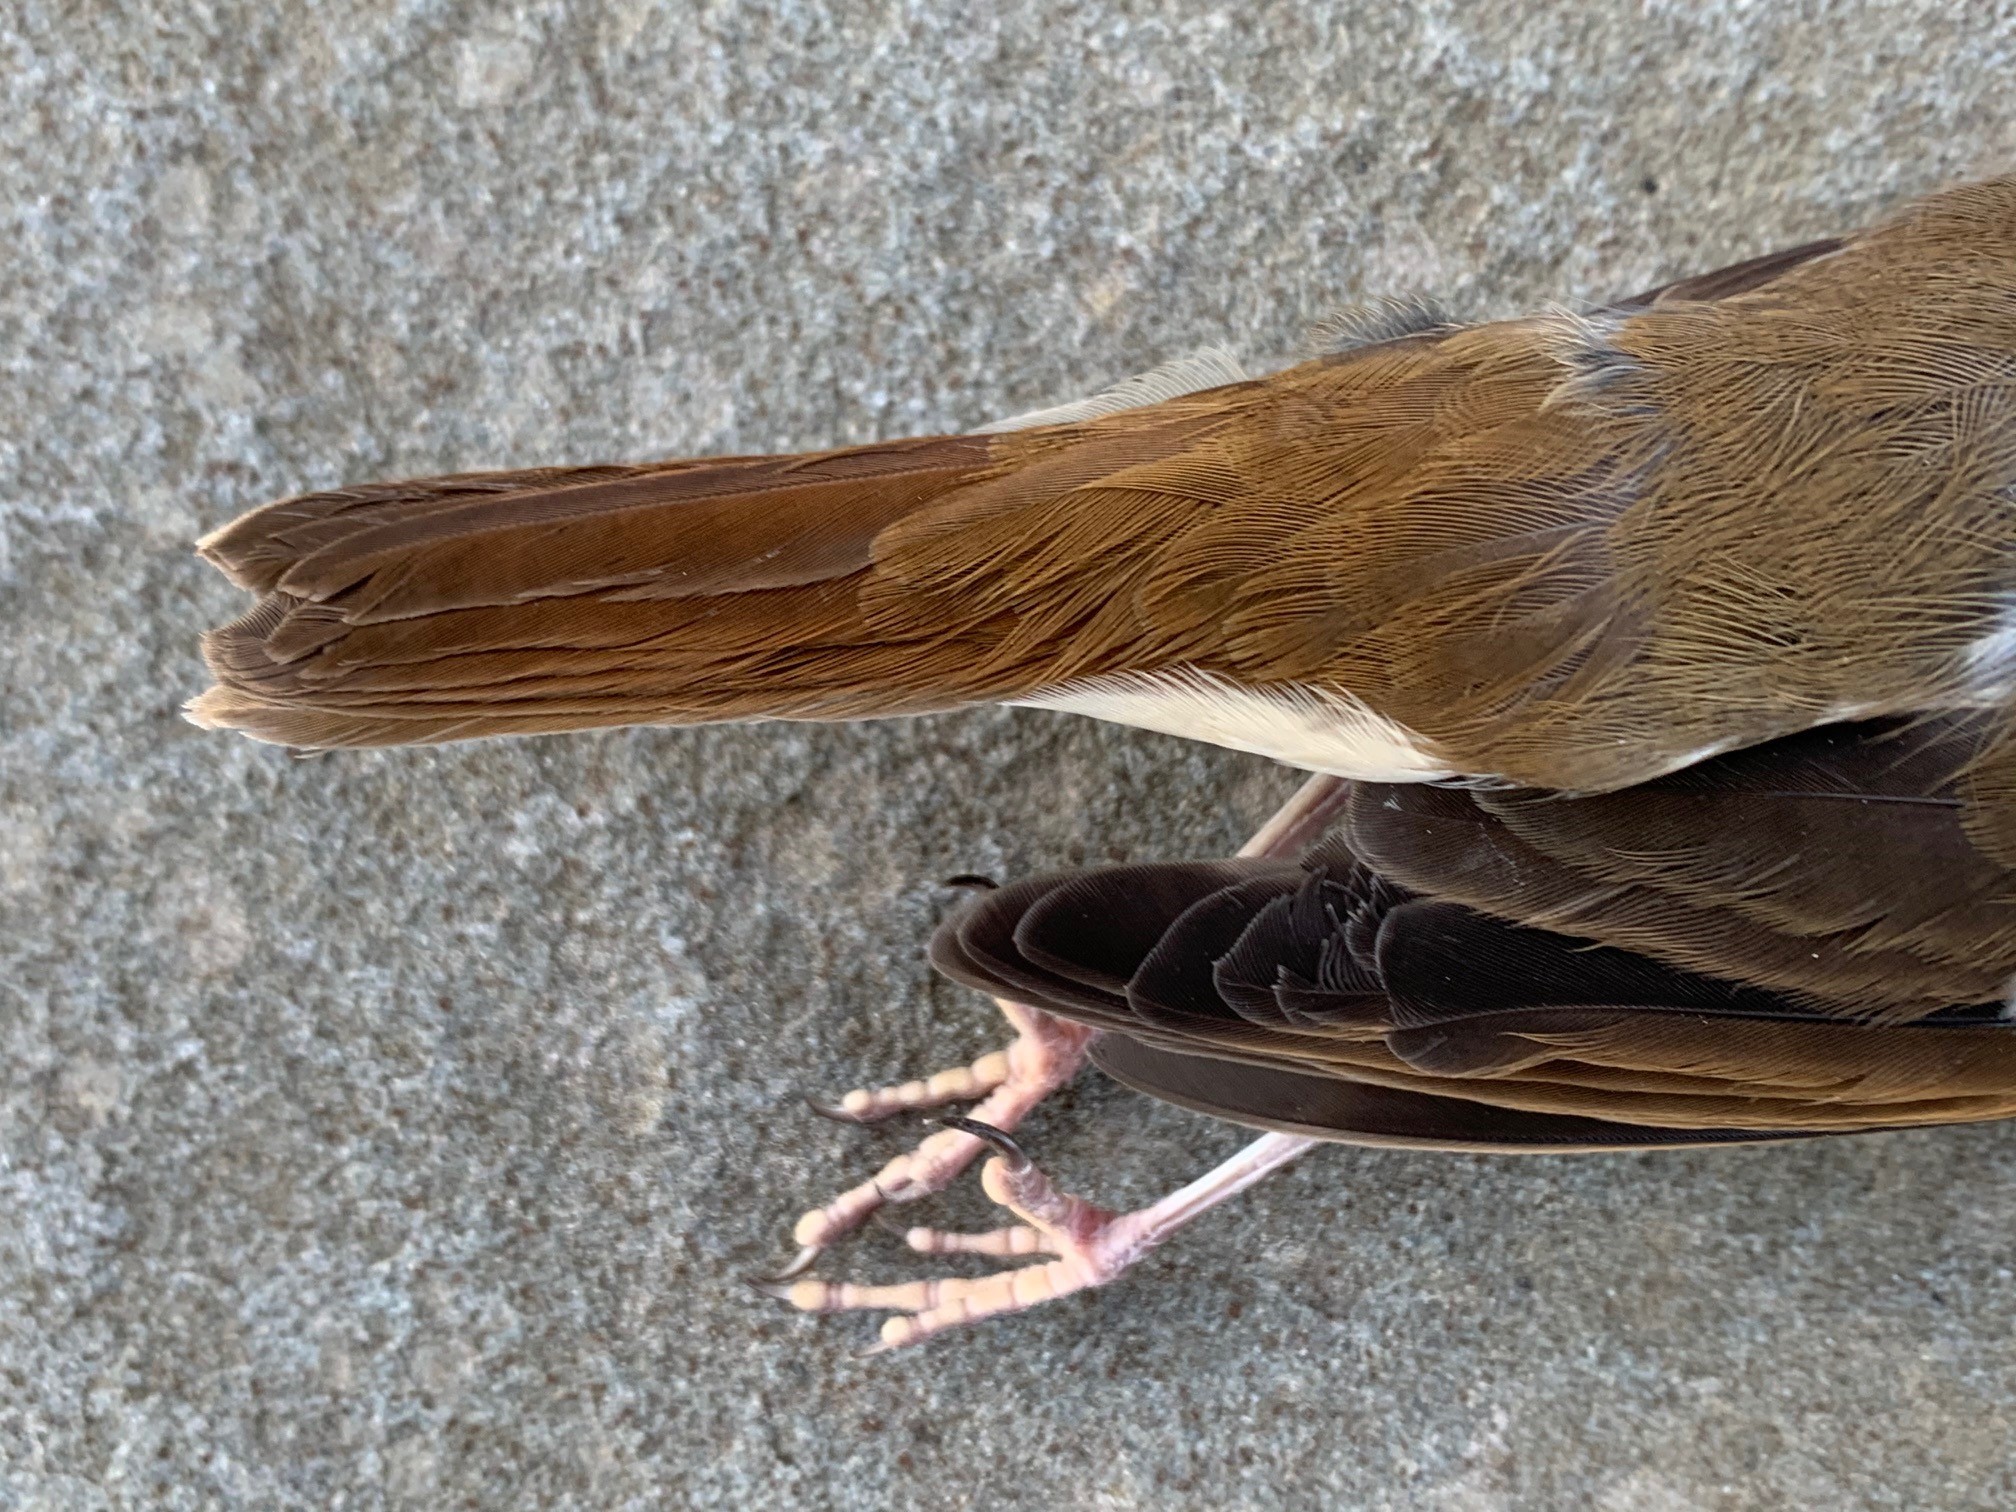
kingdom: Animalia
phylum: Chordata
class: Aves
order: Passeriformes
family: Turdidae
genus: Catharus
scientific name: Catharus guttatus
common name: Hermit thrush
